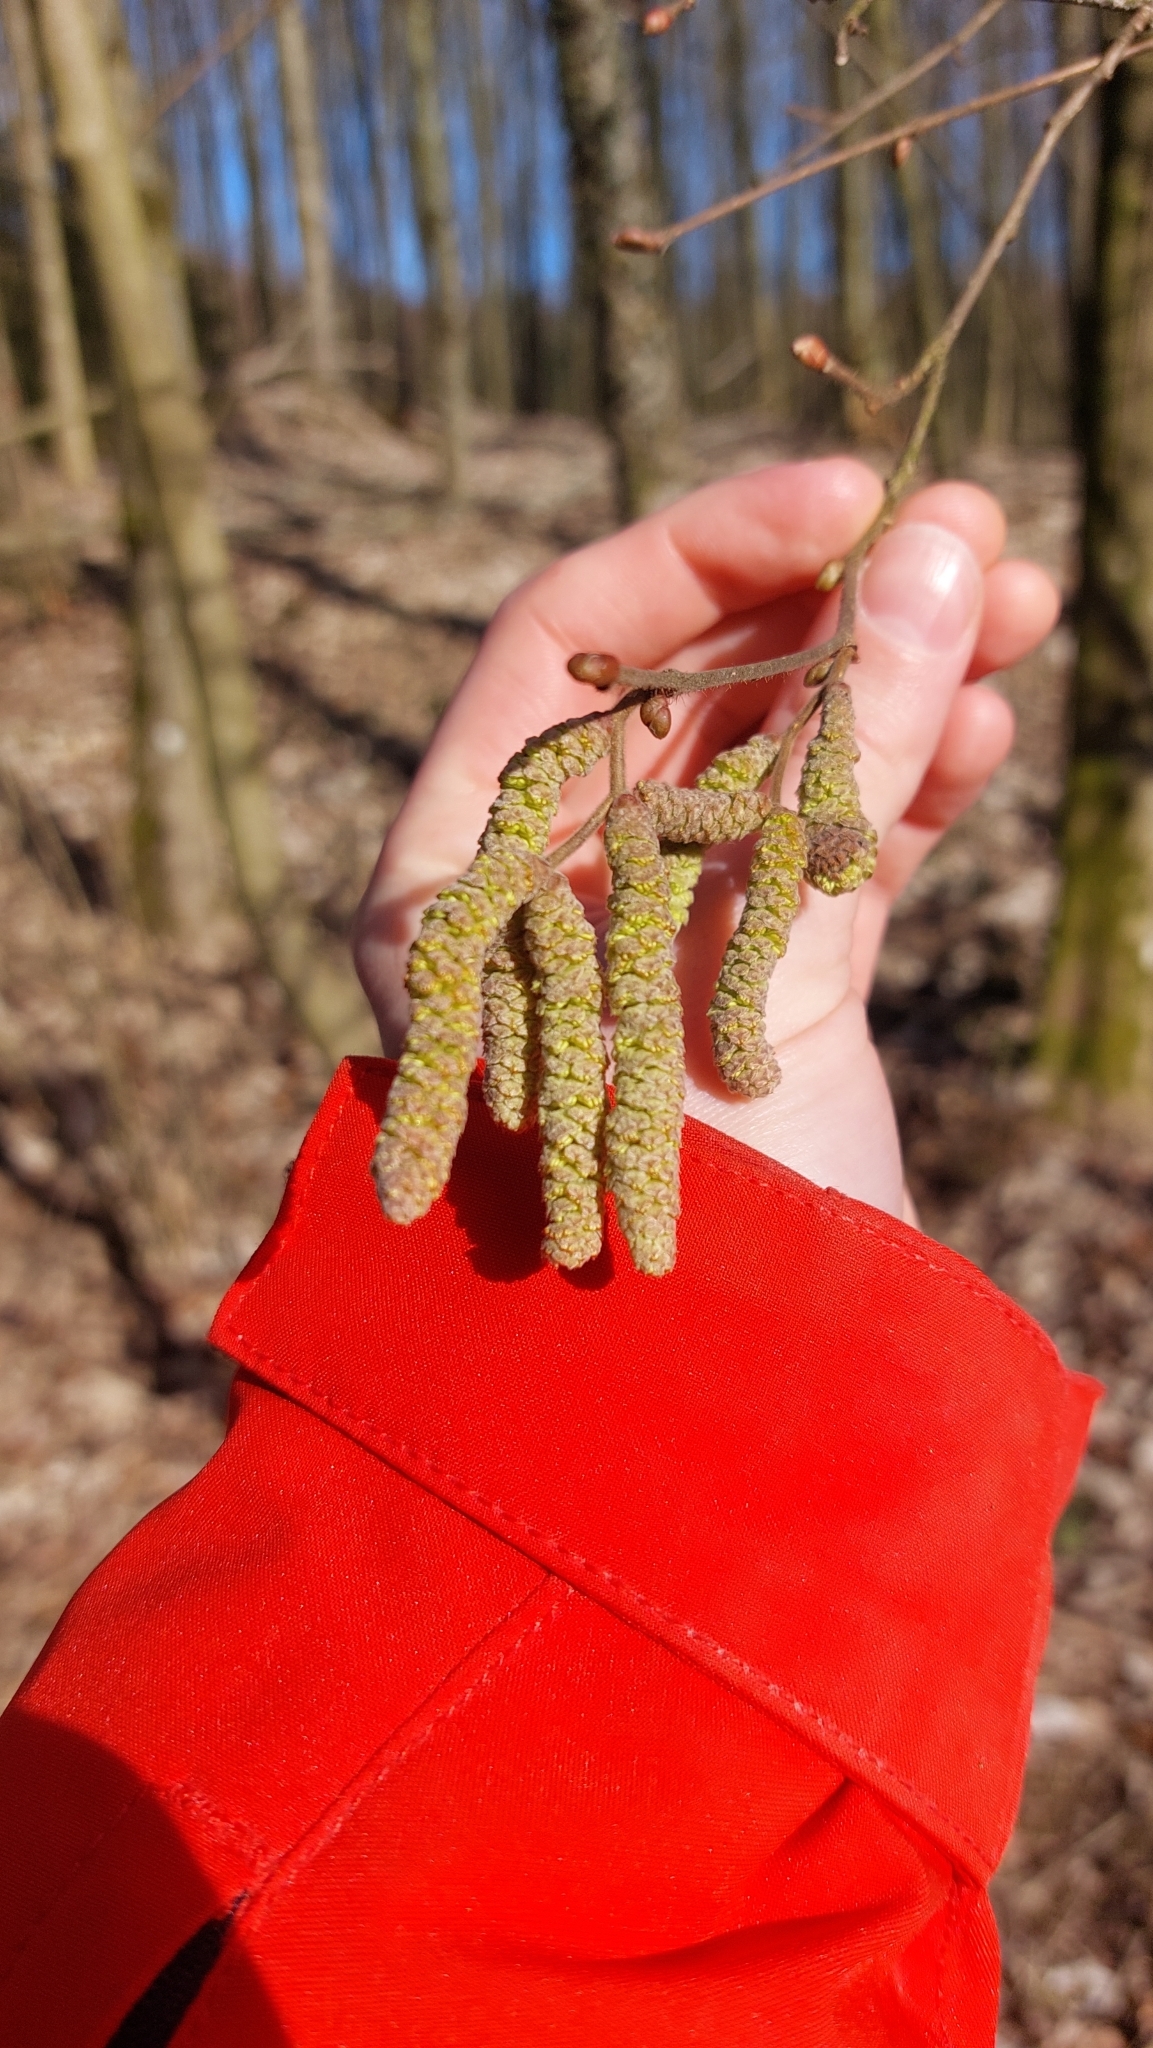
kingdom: Plantae
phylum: Tracheophyta
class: Magnoliopsida
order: Fagales
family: Betulaceae
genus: Corylus
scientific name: Corylus avellana
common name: European hazel
